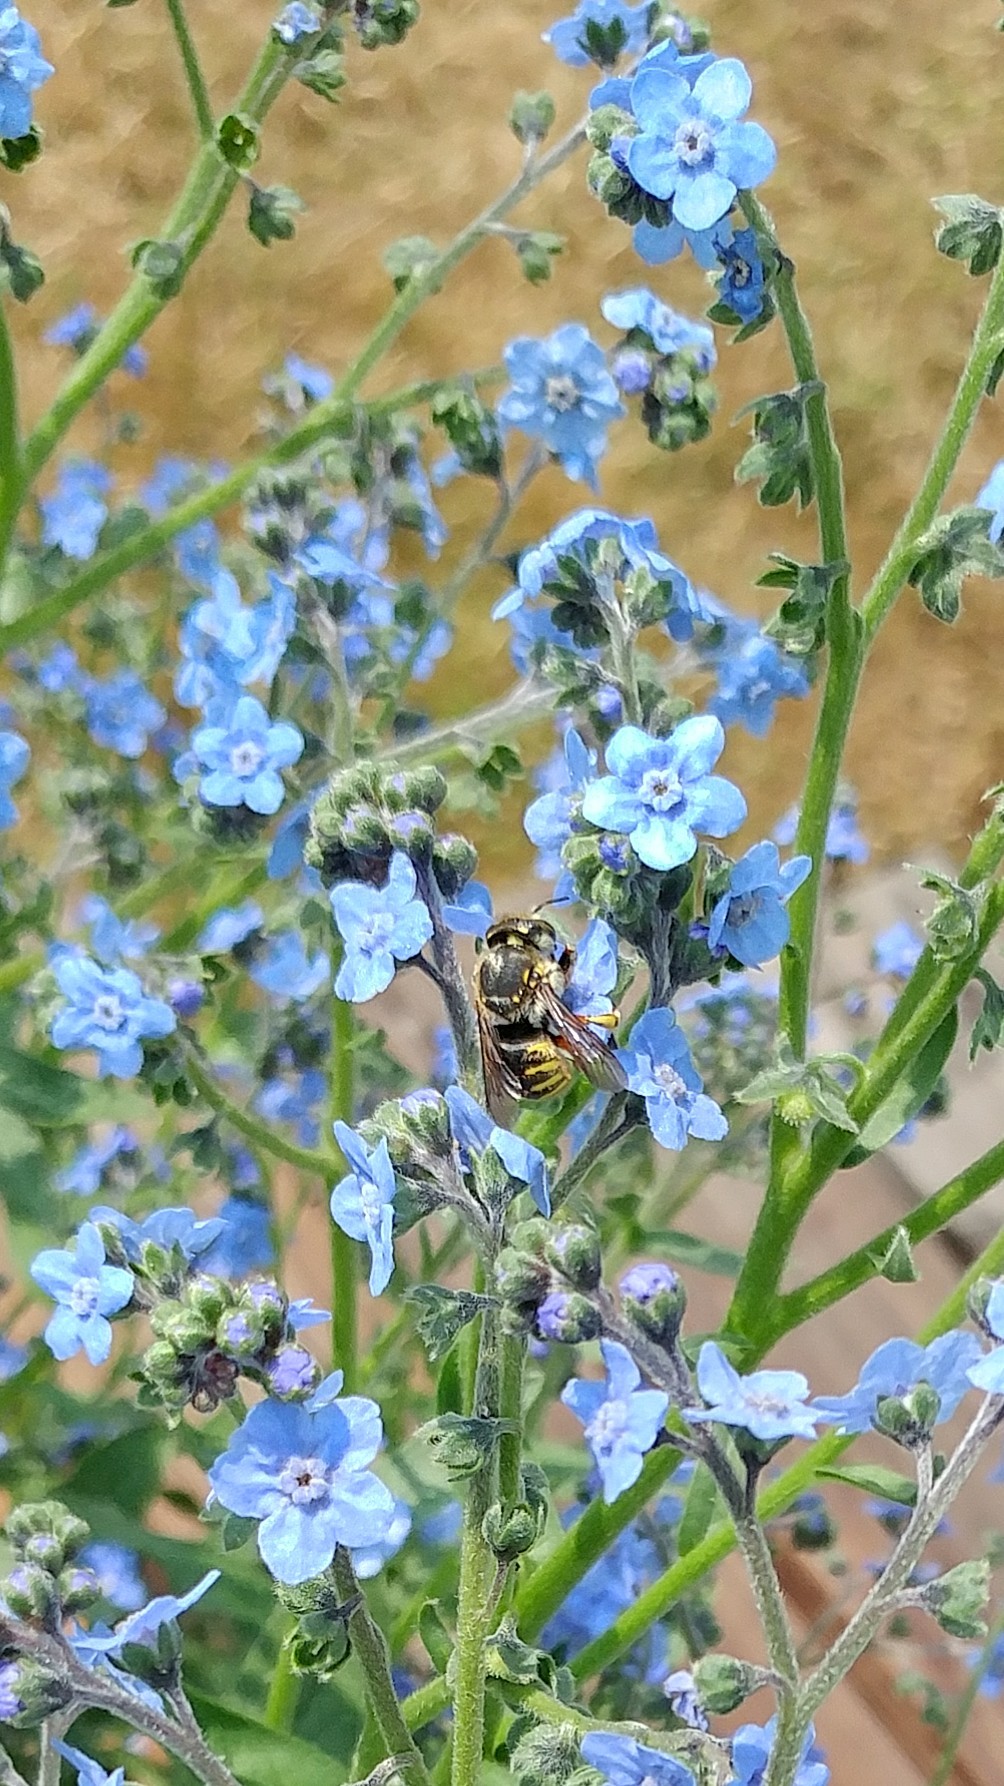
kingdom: Animalia
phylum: Arthropoda
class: Insecta
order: Hymenoptera
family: Megachilidae
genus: Anthidium
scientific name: Anthidium manicatum
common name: Wool carder bee
